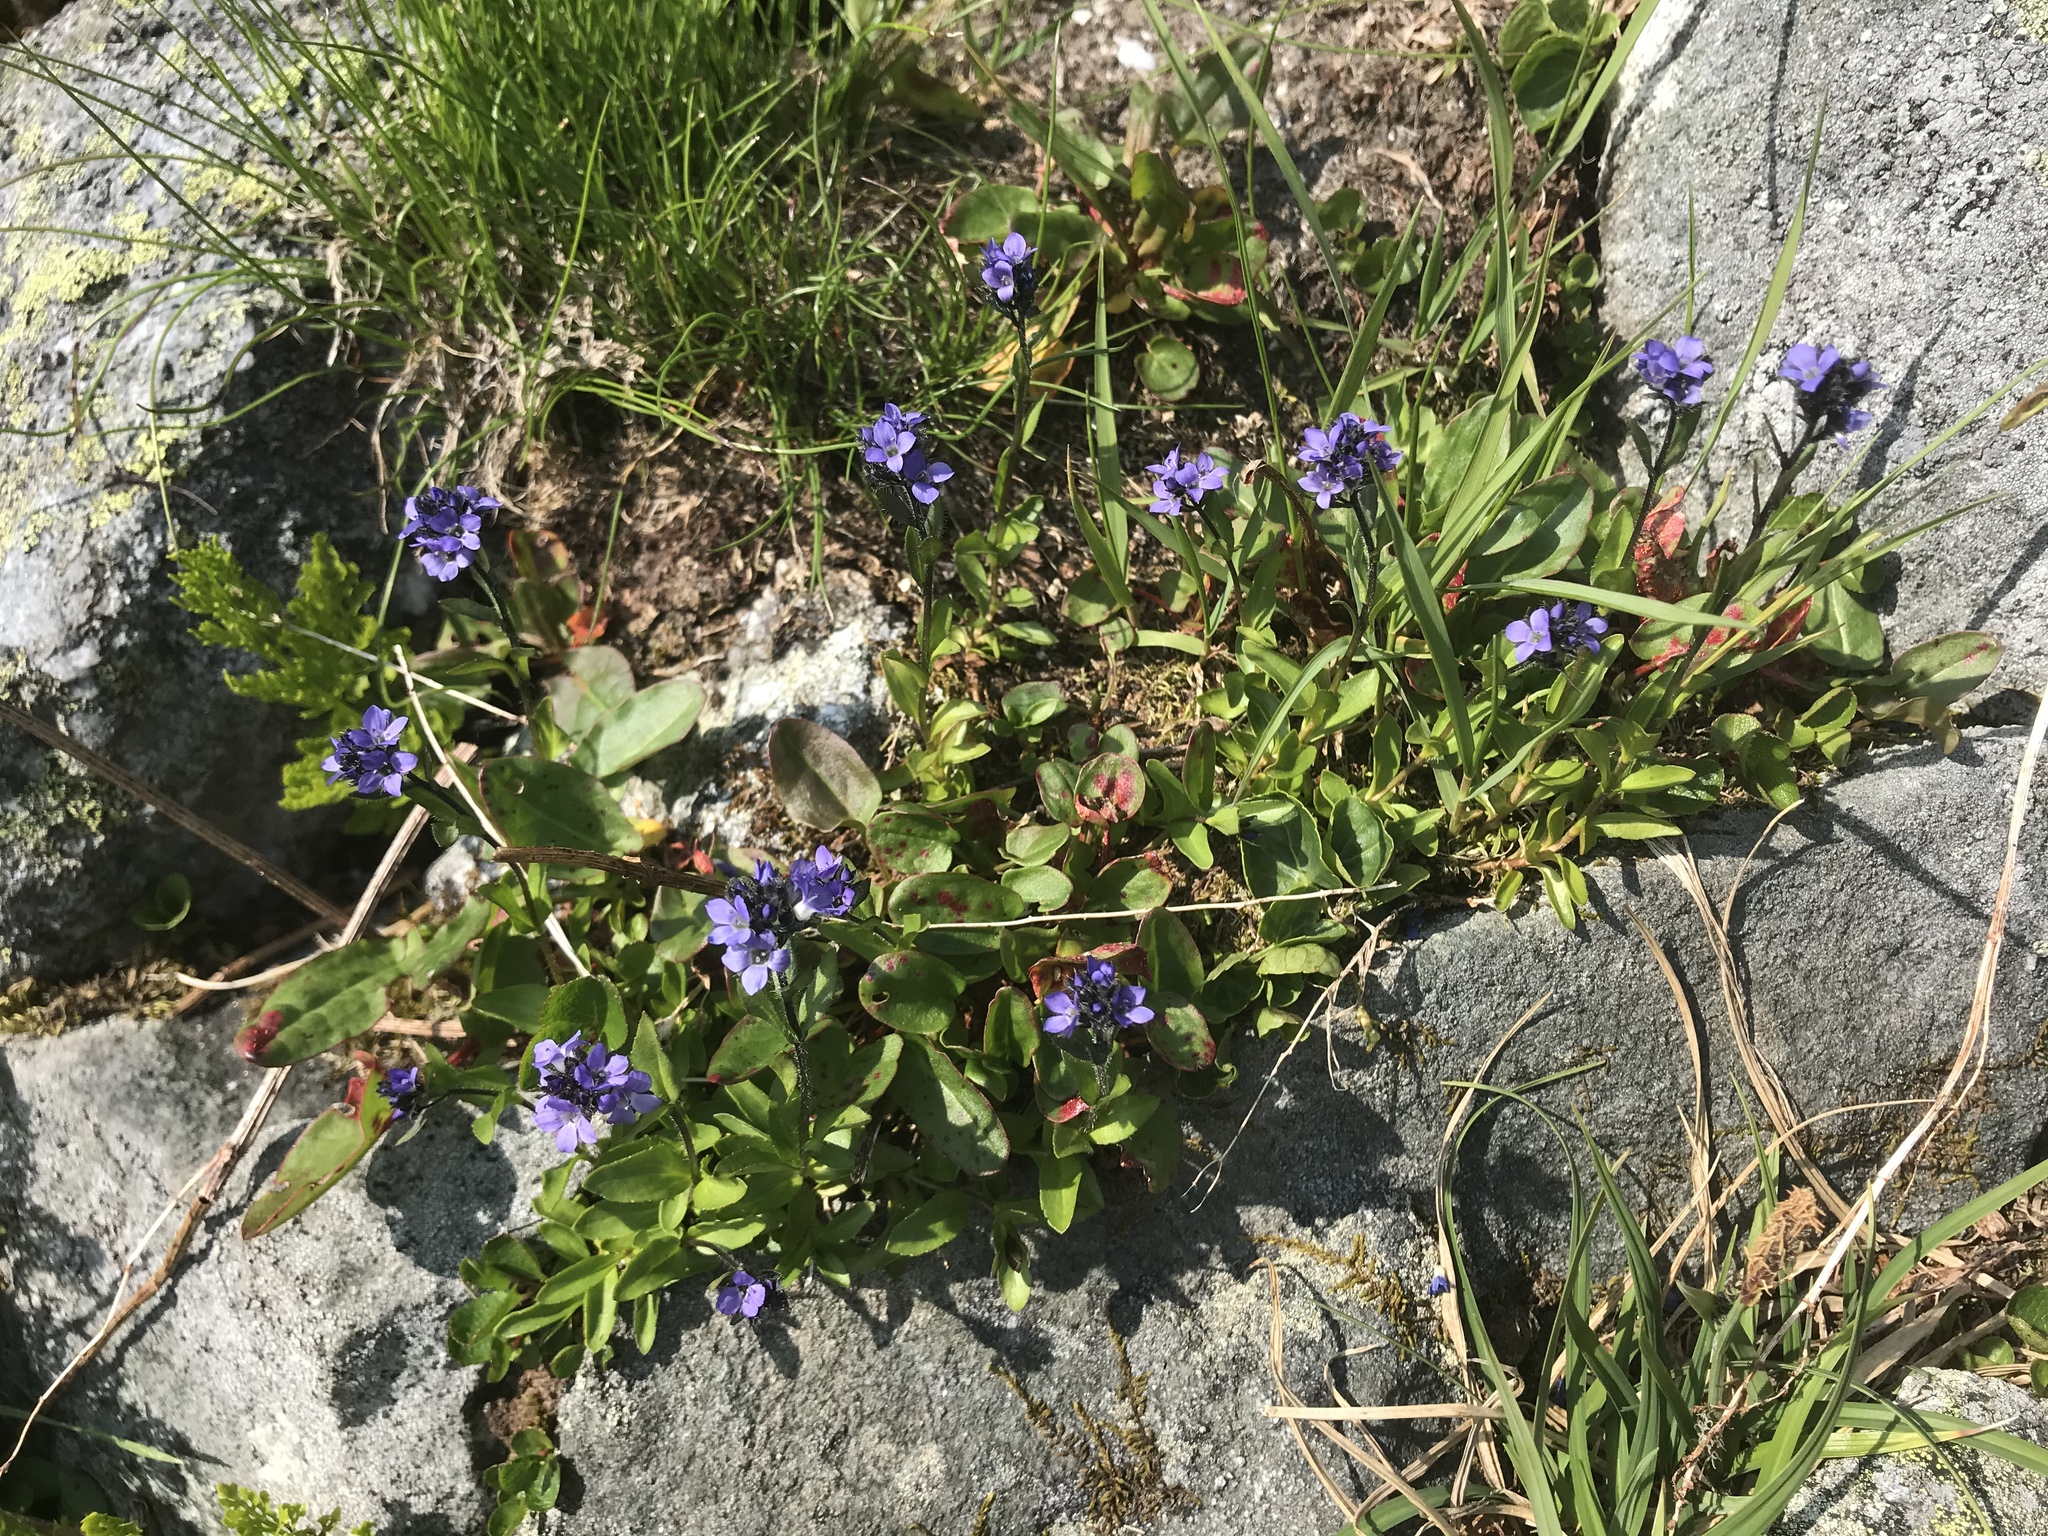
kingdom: Plantae
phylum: Tracheophyta
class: Magnoliopsida
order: Lamiales
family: Plantaginaceae
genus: Veronica
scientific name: Veronica alpina
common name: Alpine speedwell
